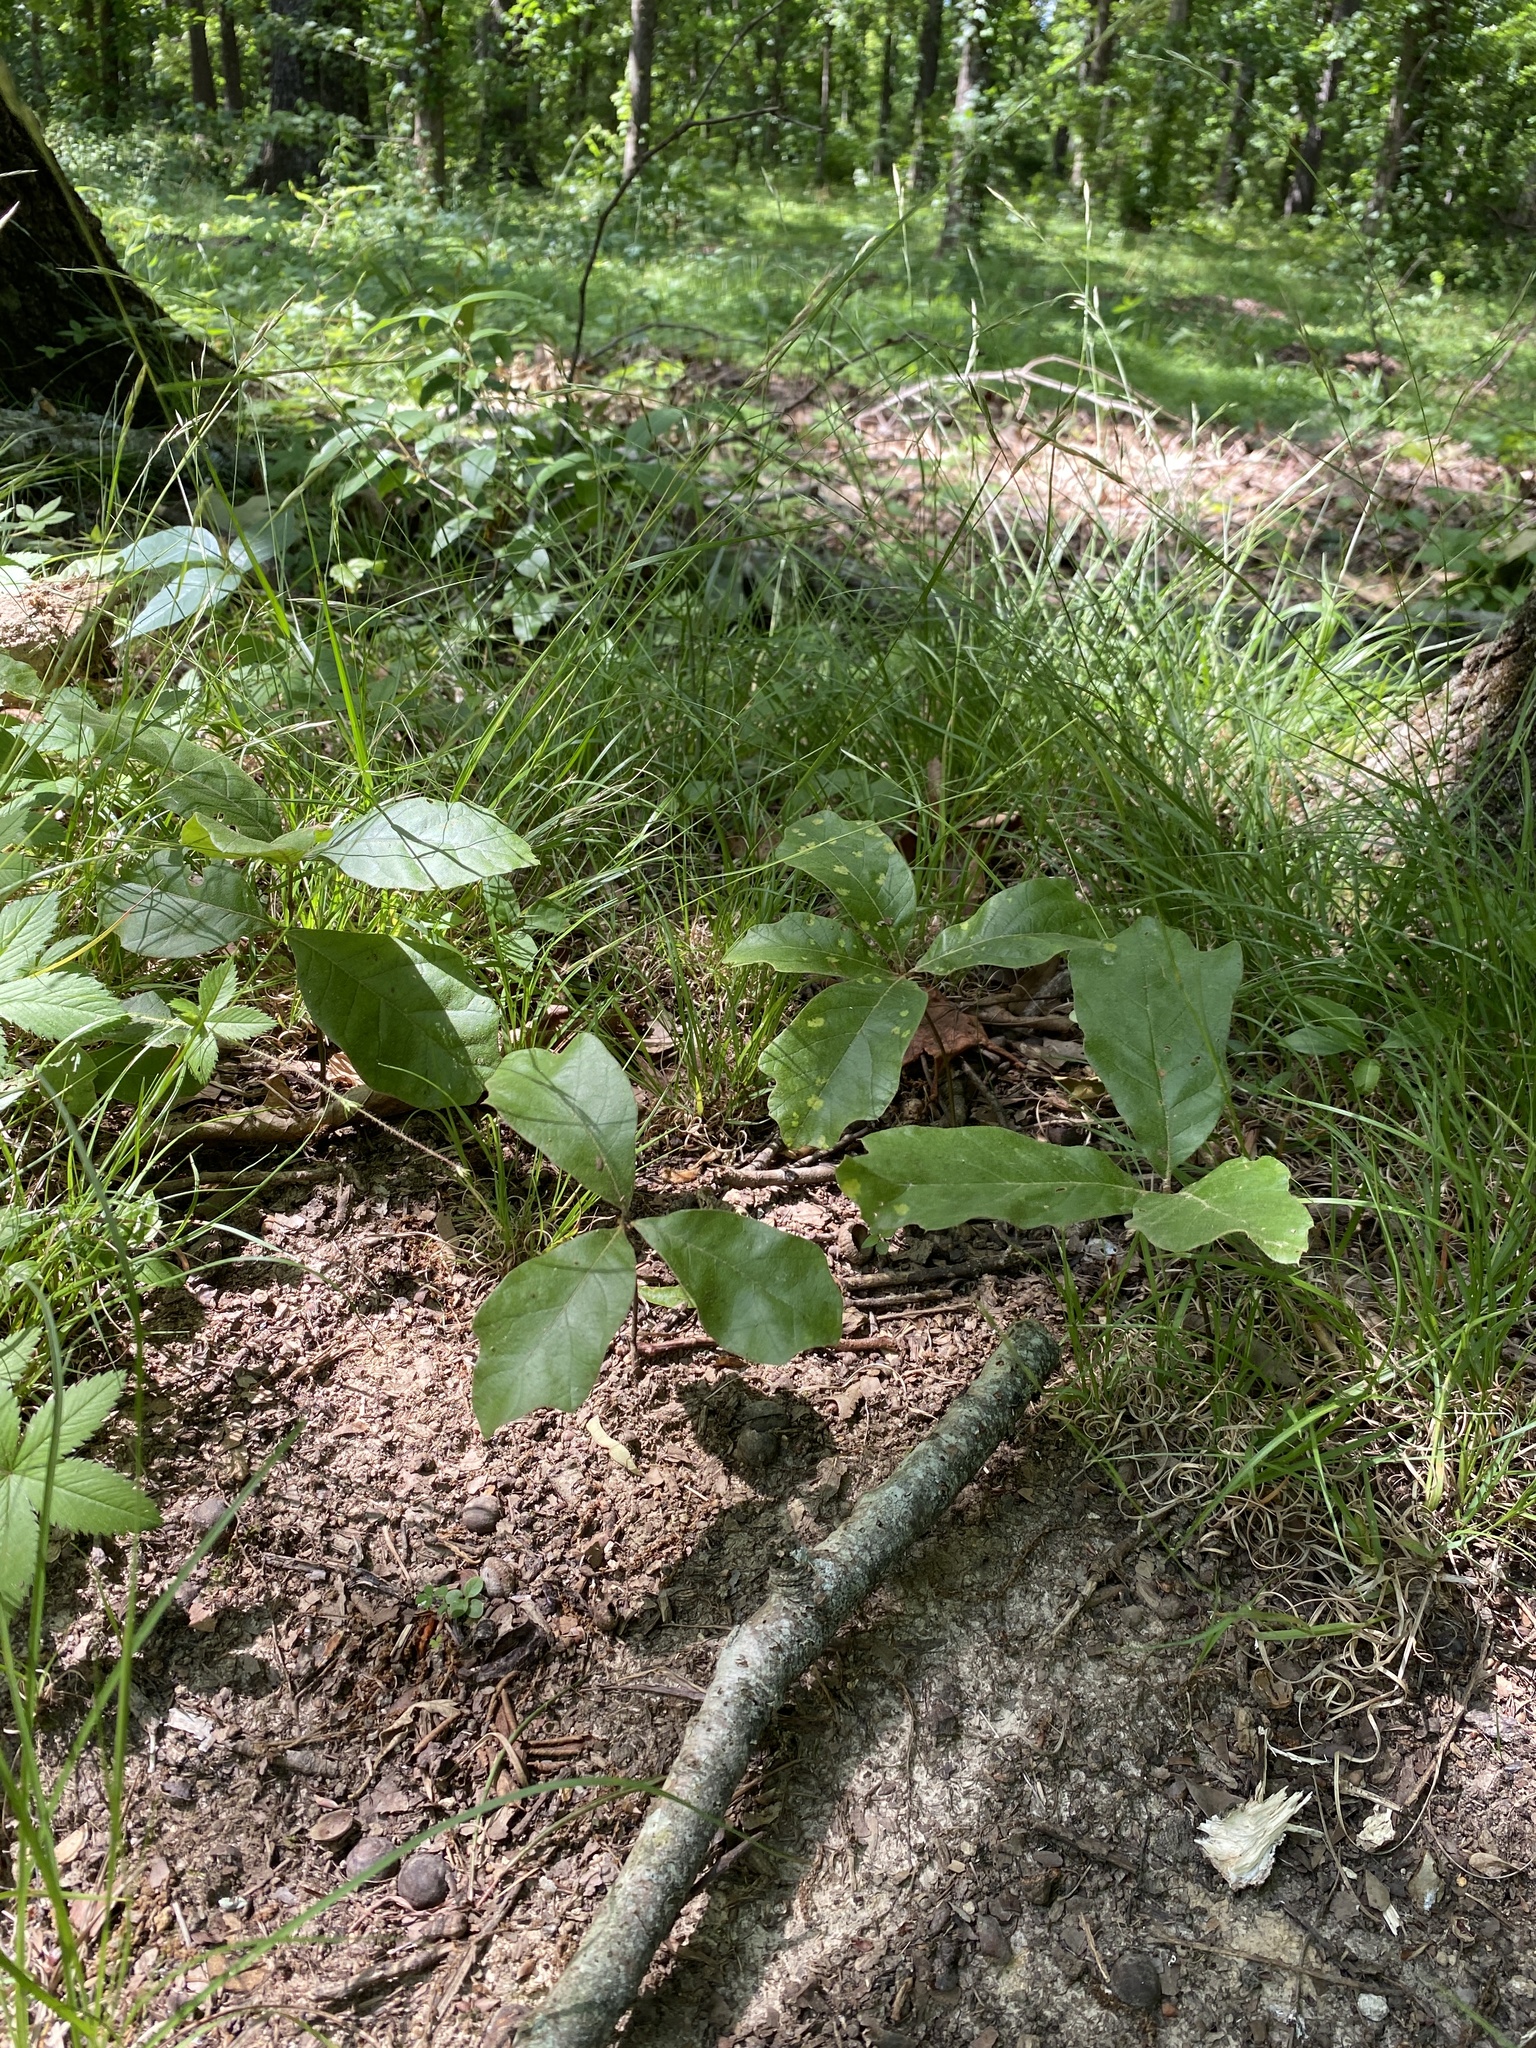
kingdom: Plantae
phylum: Tracheophyta
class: Magnoliopsida
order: Fagales
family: Fagaceae
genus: Quercus
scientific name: Quercus falcata
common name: Southern red oak
